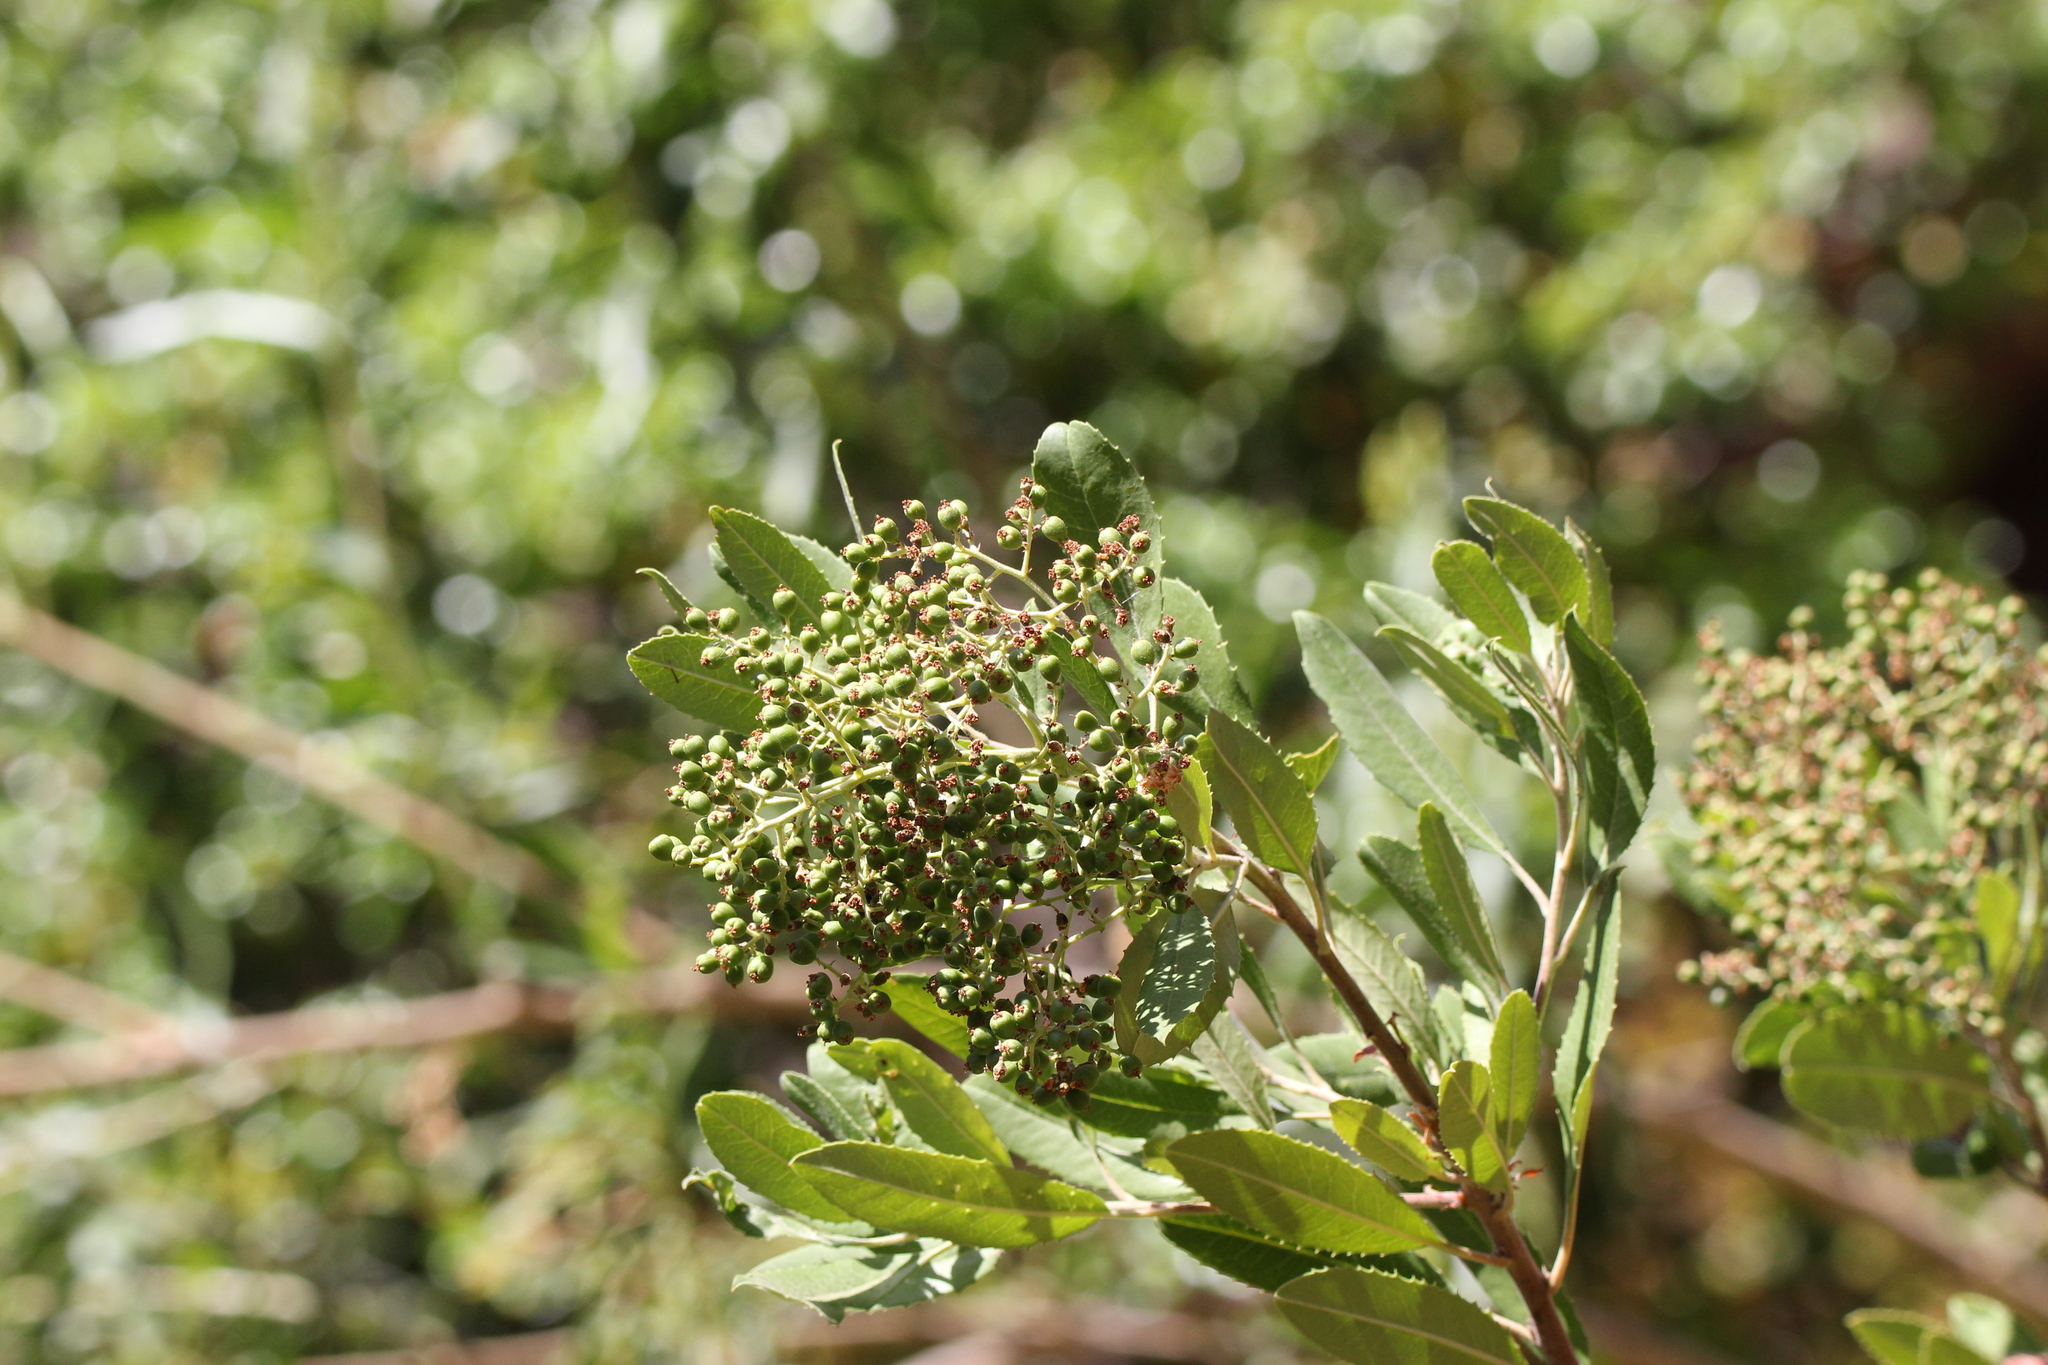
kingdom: Plantae
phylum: Tracheophyta
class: Magnoliopsida
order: Rosales
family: Rosaceae
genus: Heteromeles
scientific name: Heteromeles arbutifolia
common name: California-holly
